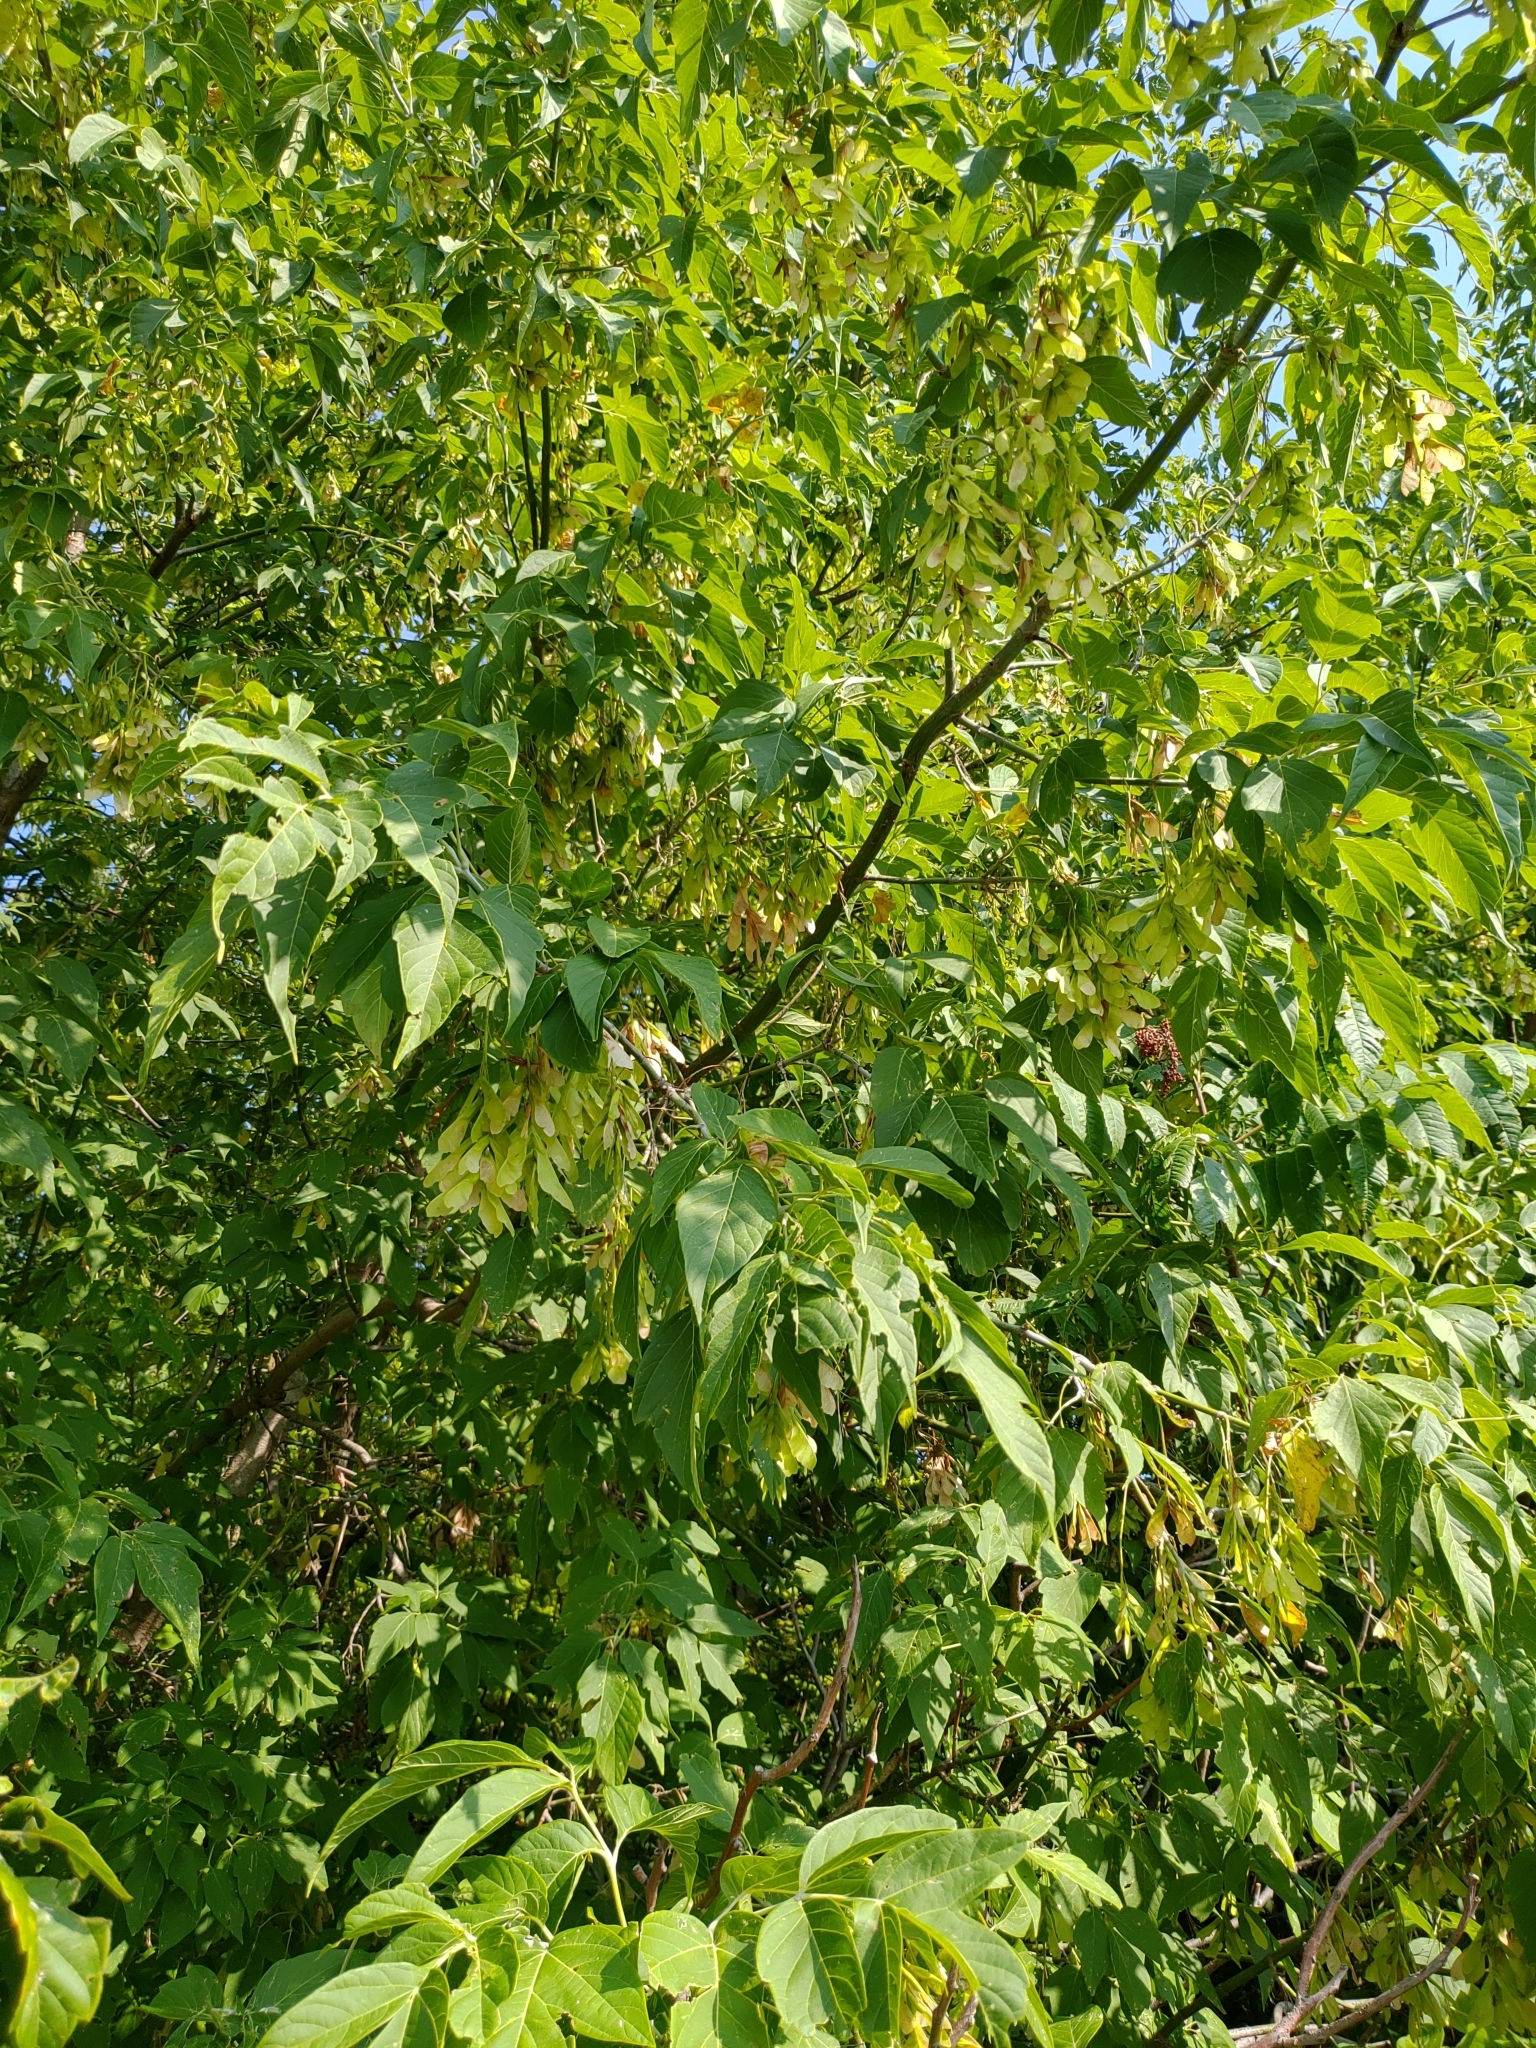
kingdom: Plantae
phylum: Tracheophyta
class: Magnoliopsida
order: Sapindales
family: Sapindaceae
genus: Acer
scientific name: Acer negundo
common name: Ashleaf maple
